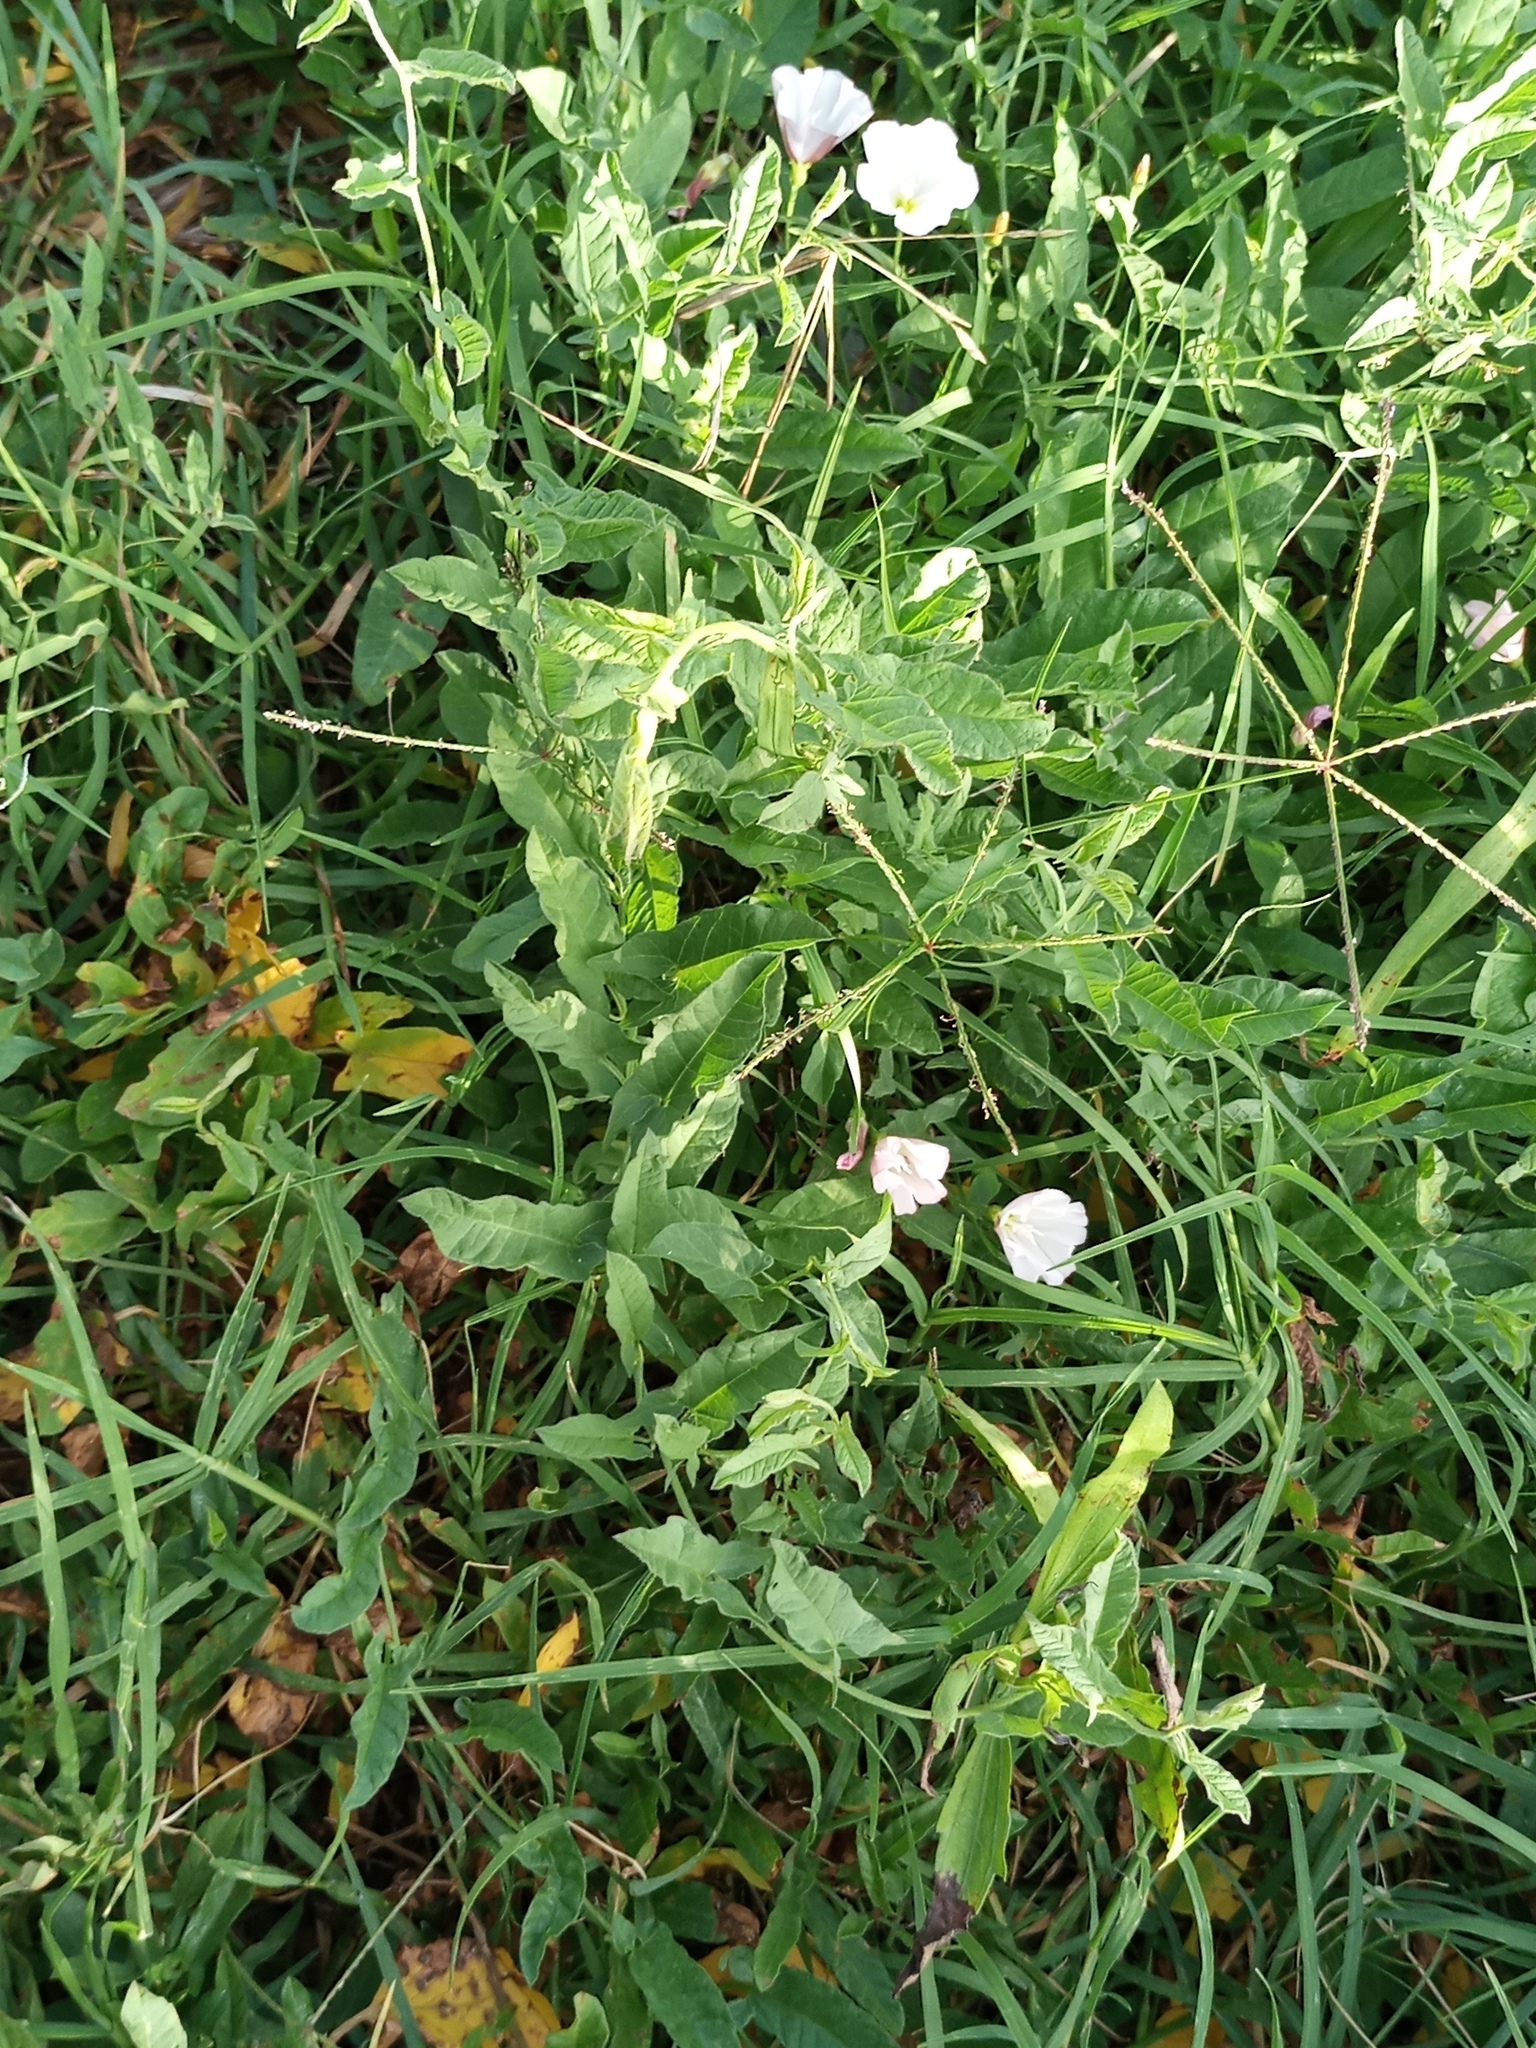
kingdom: Plantae
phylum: Tracheophyta
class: Magnoliopsida
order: Solanales
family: Convolvulaceae
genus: Convolvulus
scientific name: Convolvulus hermanniae
